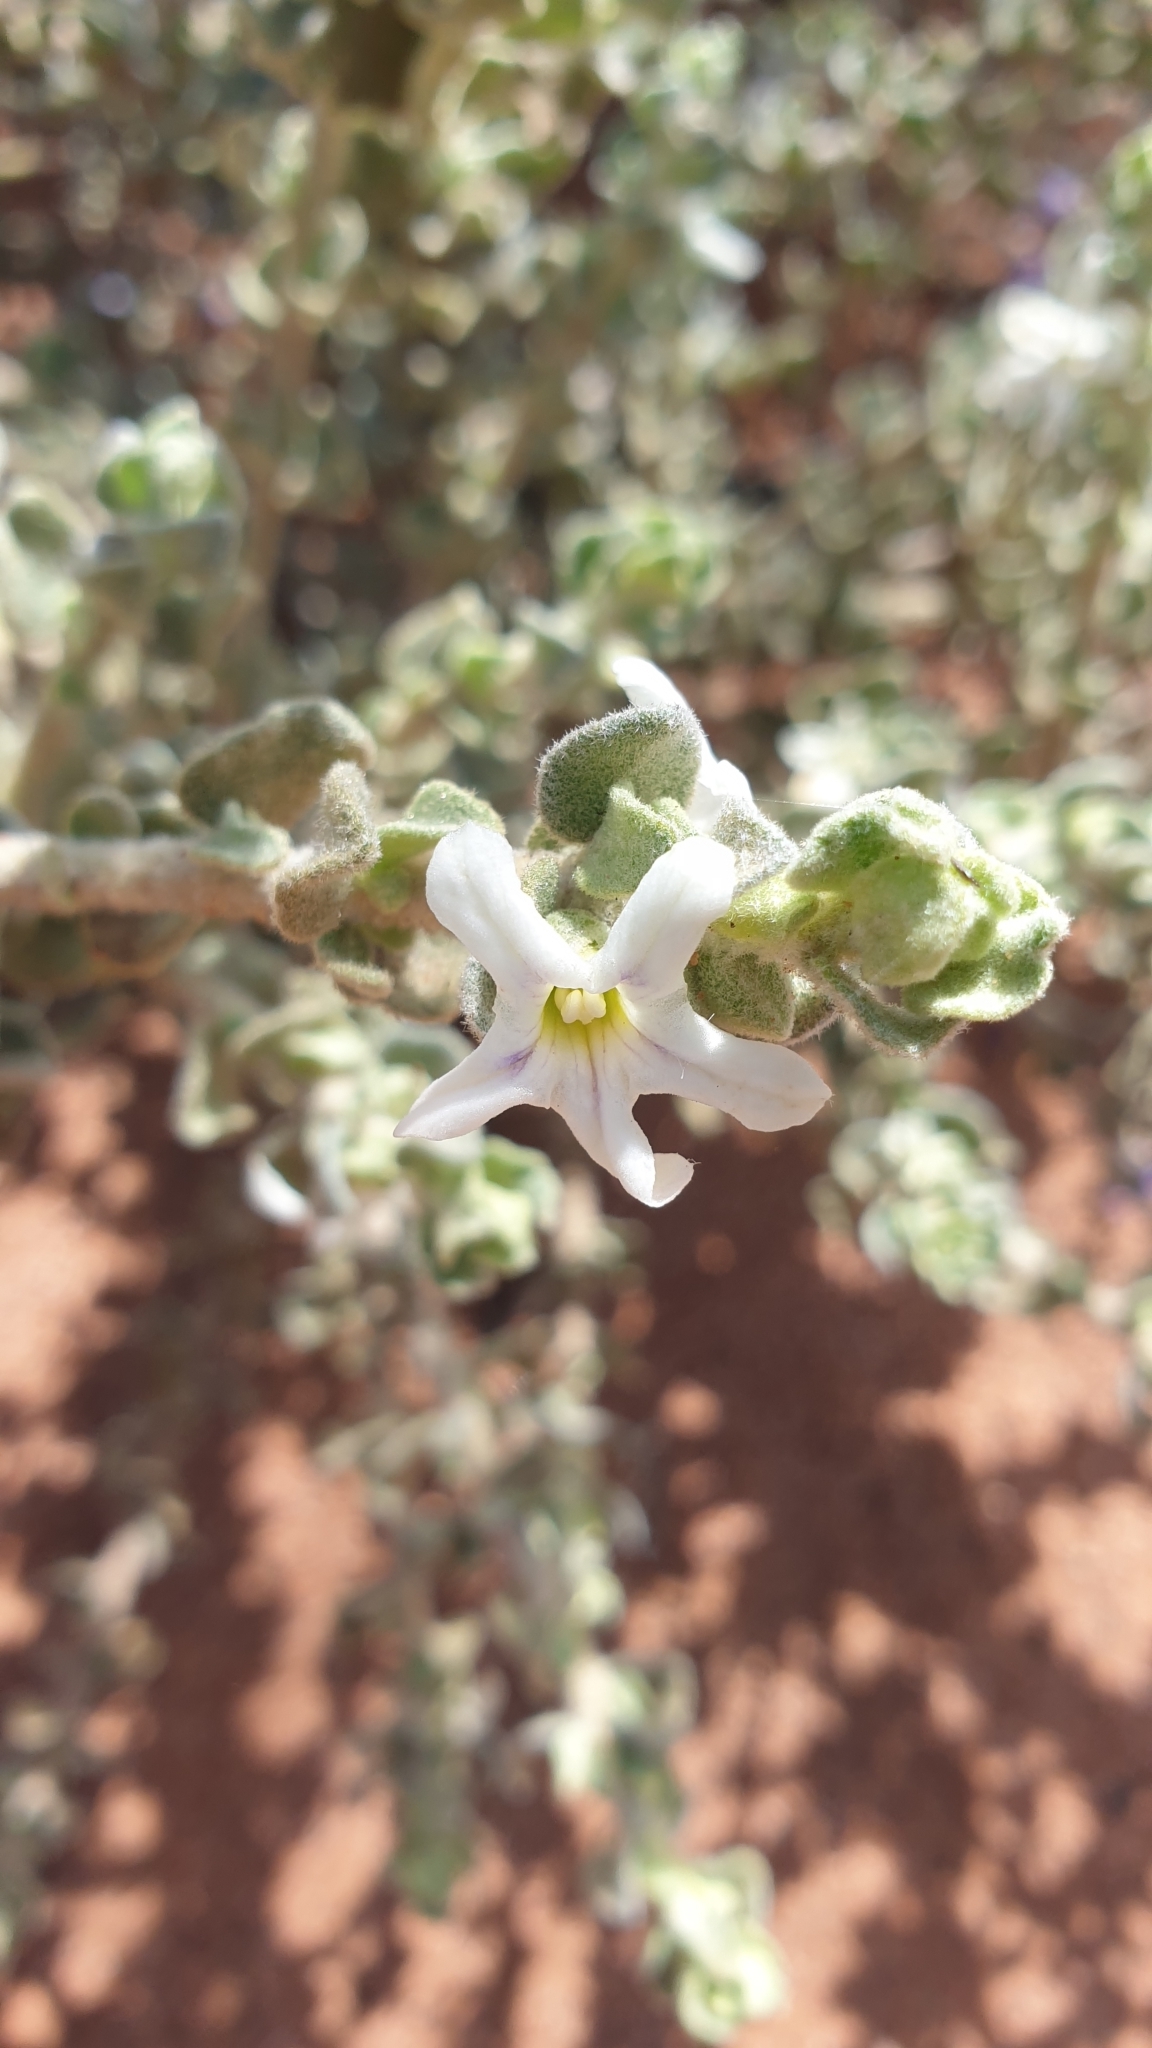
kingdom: Plantae
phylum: Tracheophyta
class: Magnoliopsida
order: Solanales
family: Solanaceae
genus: Grammosolen
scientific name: Grammosolen dixonii
